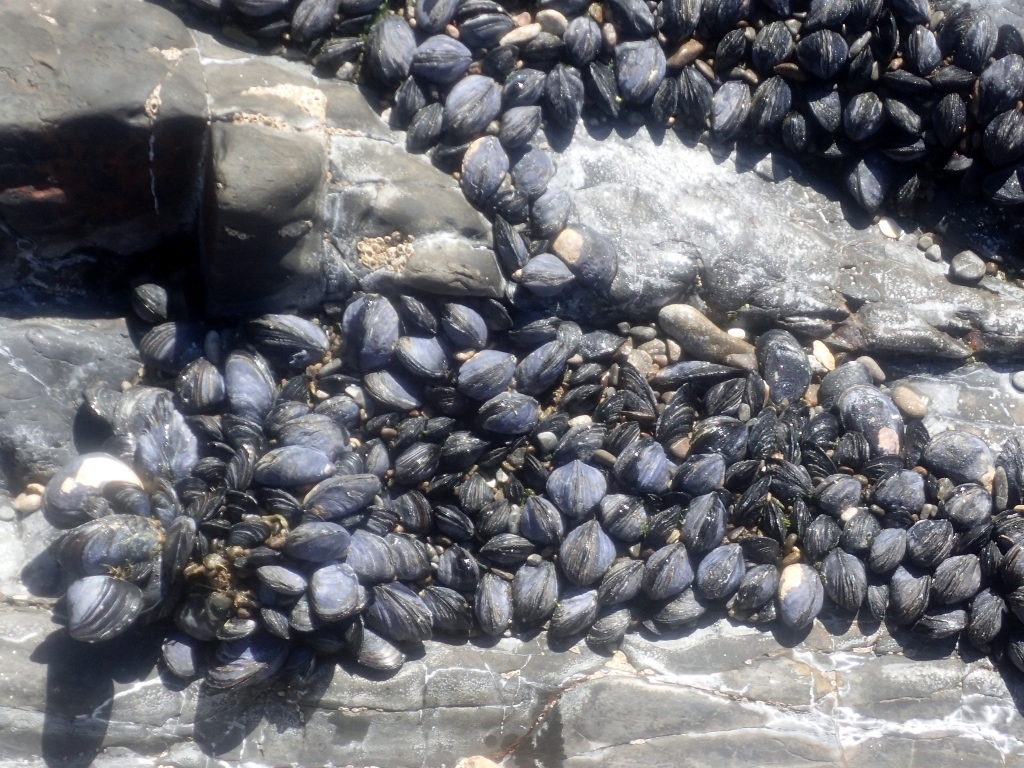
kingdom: Animalia
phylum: Mollusca
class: Bivalvia
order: Mytilida
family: Mytilidae
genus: Mytilus
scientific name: Mytilus planulatus
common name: Australian mussel
